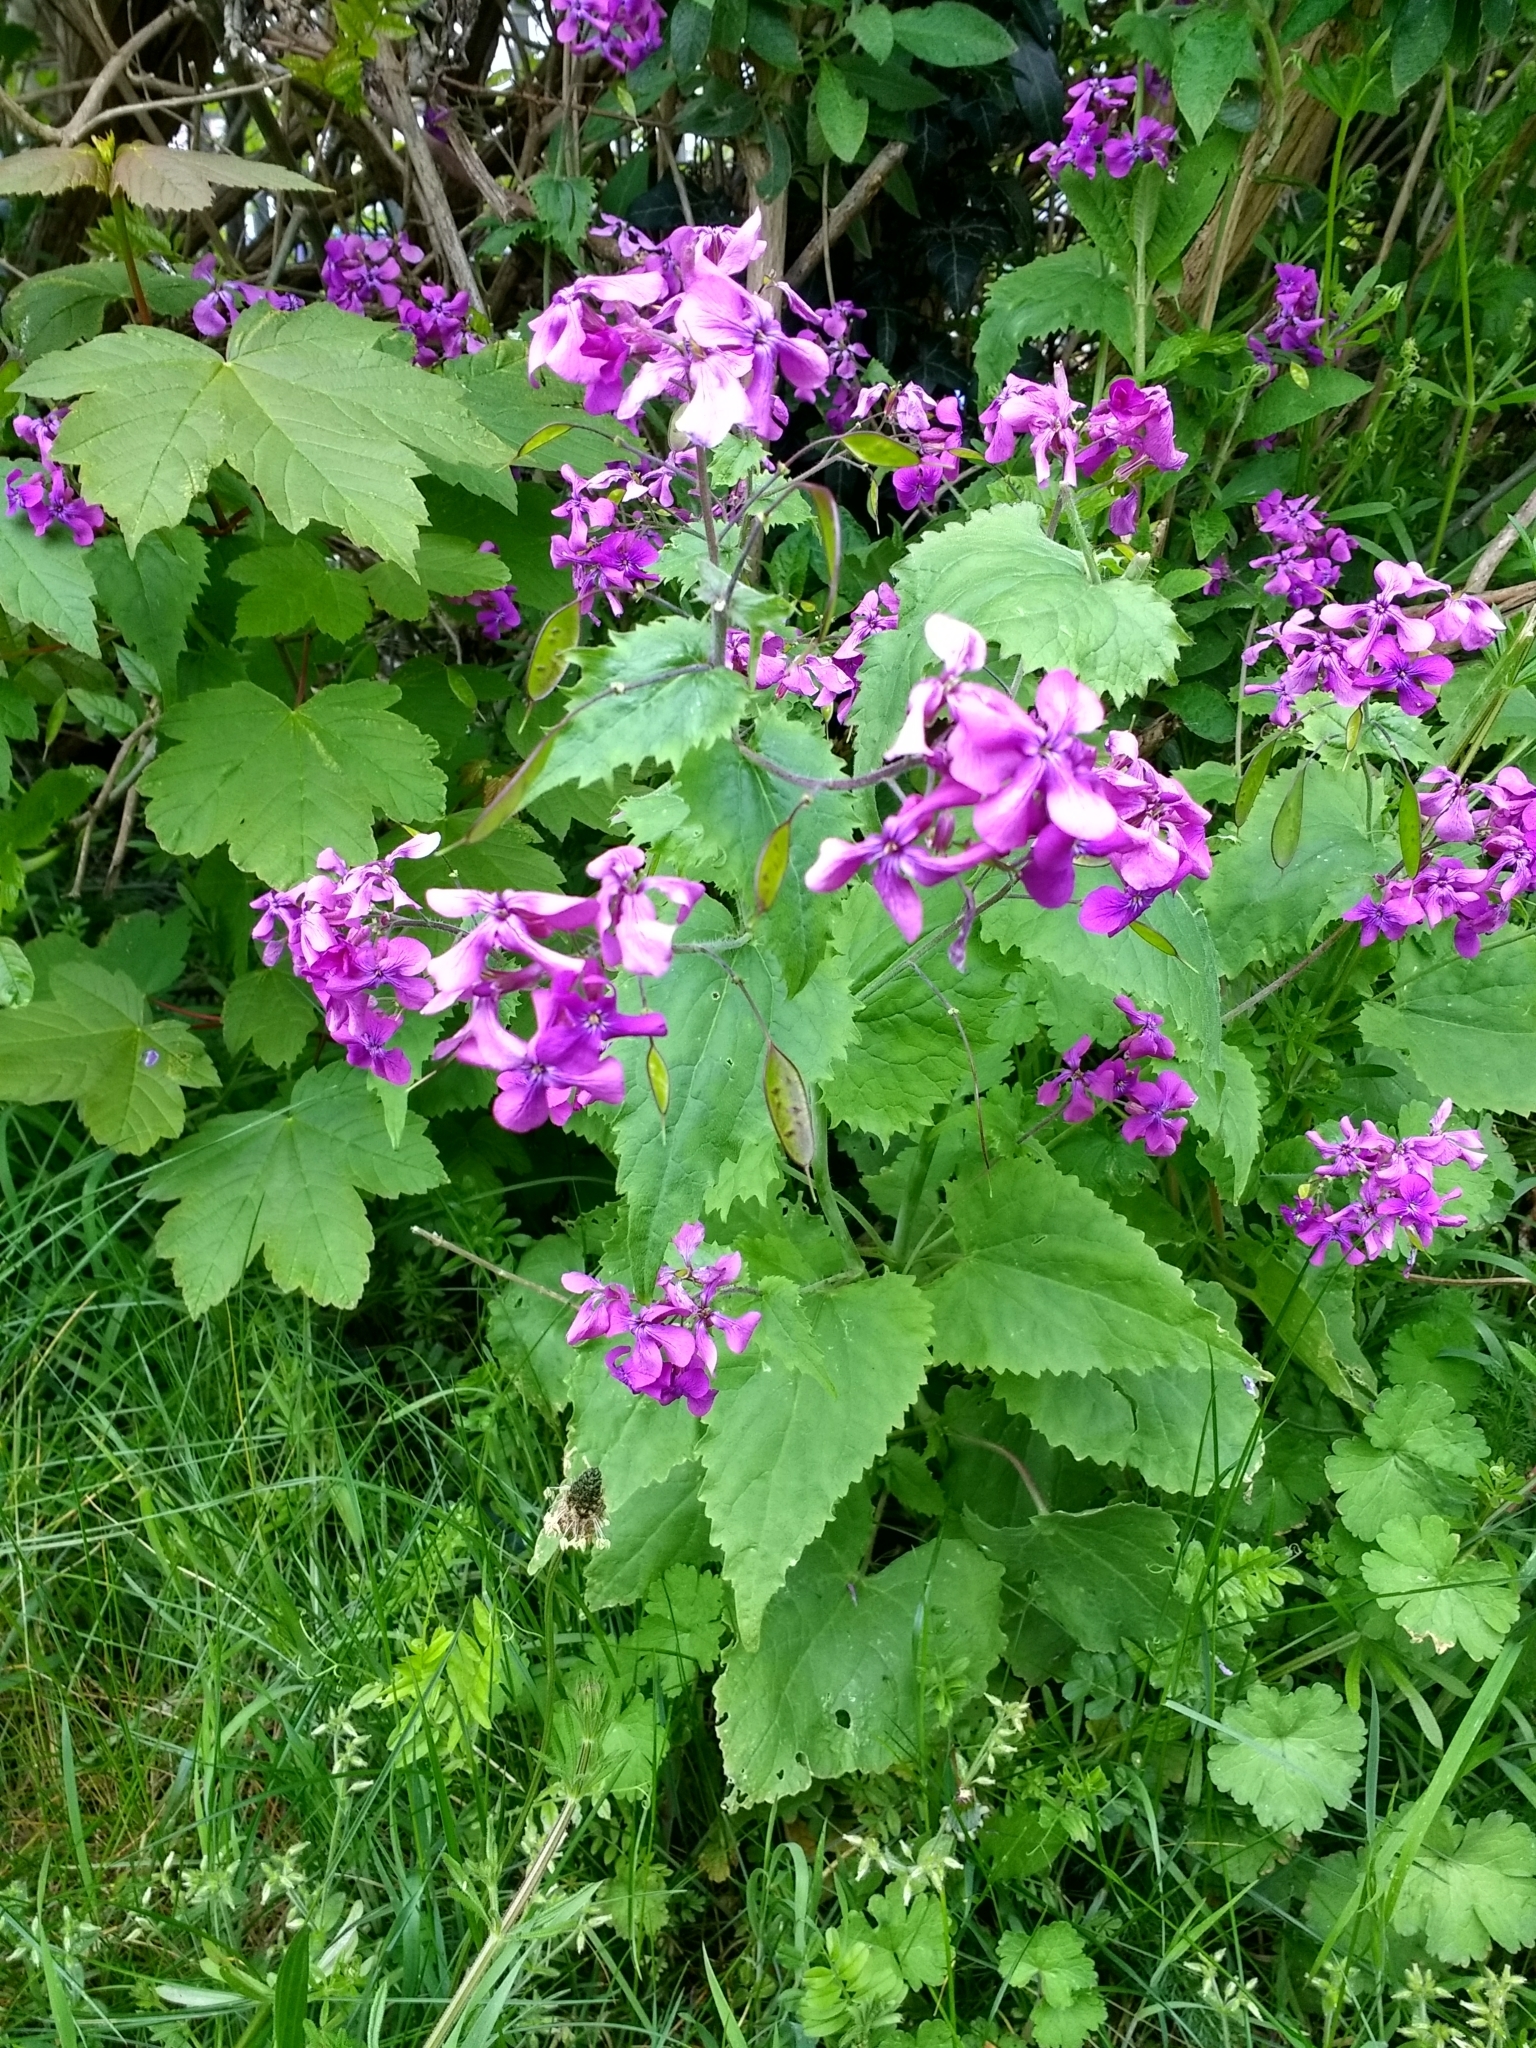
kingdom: Plantae
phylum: Tracheophyta
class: Magnoliopsida
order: Brassicales
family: Brassicaceae
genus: Lunaria
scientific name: Lunaria annua
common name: Honesty
